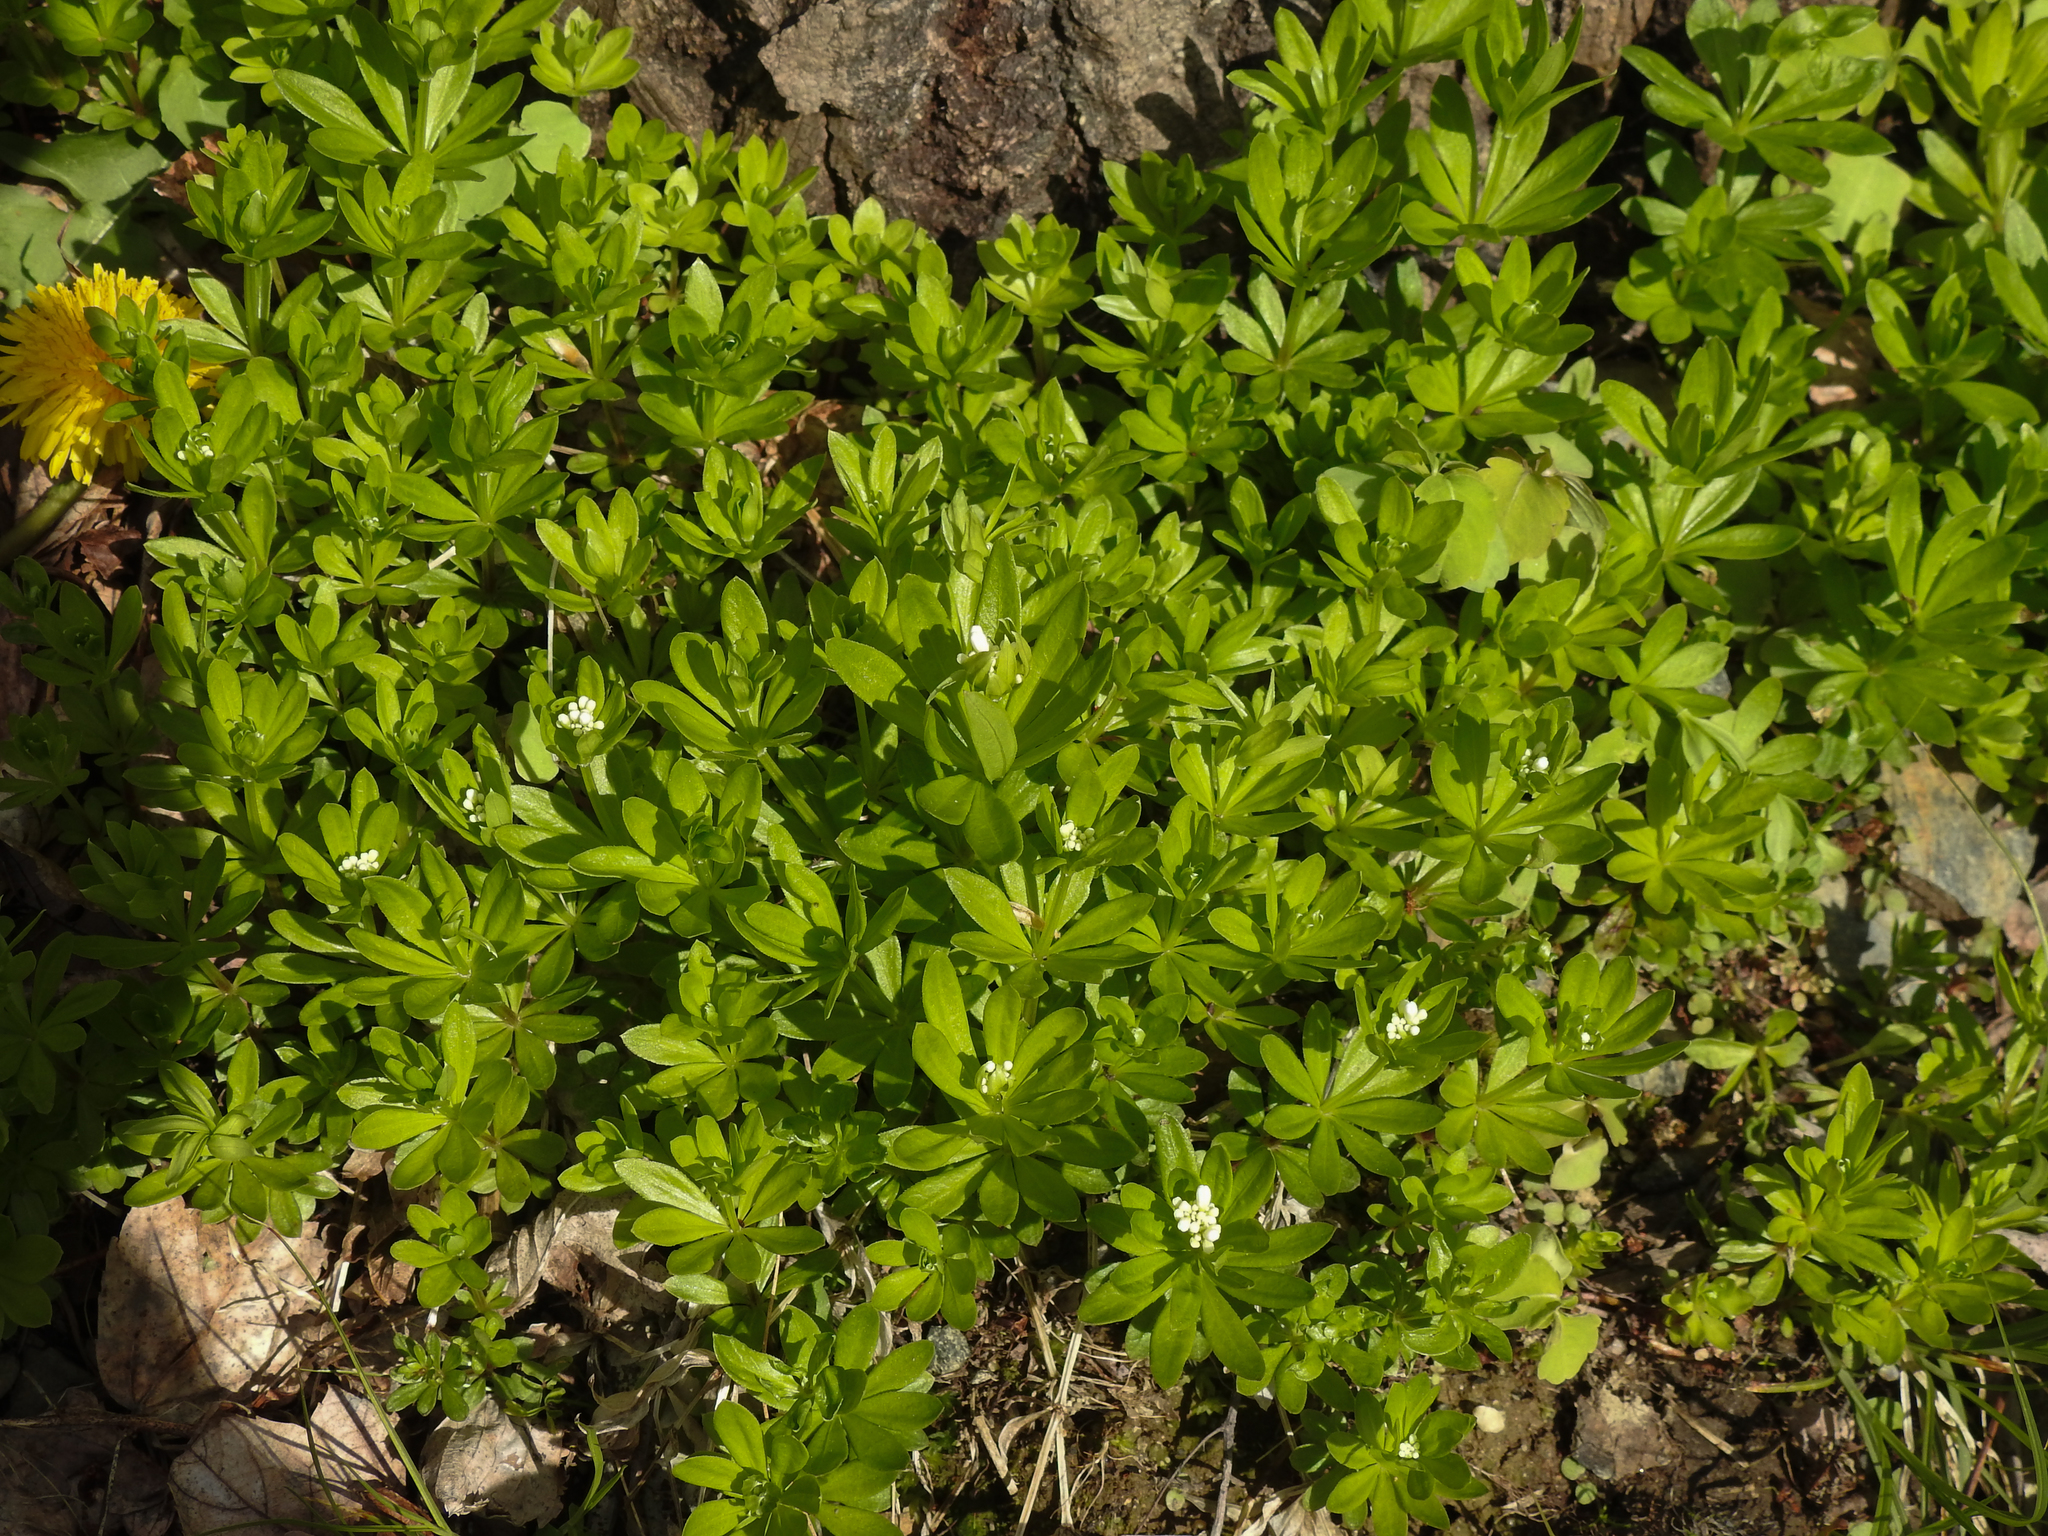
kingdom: Plantae
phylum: Tracheophyta
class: Magnoliopsida
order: Gentianales
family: Rubiaceae
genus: Galium
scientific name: Galium odoratum
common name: Sweet woodruff
